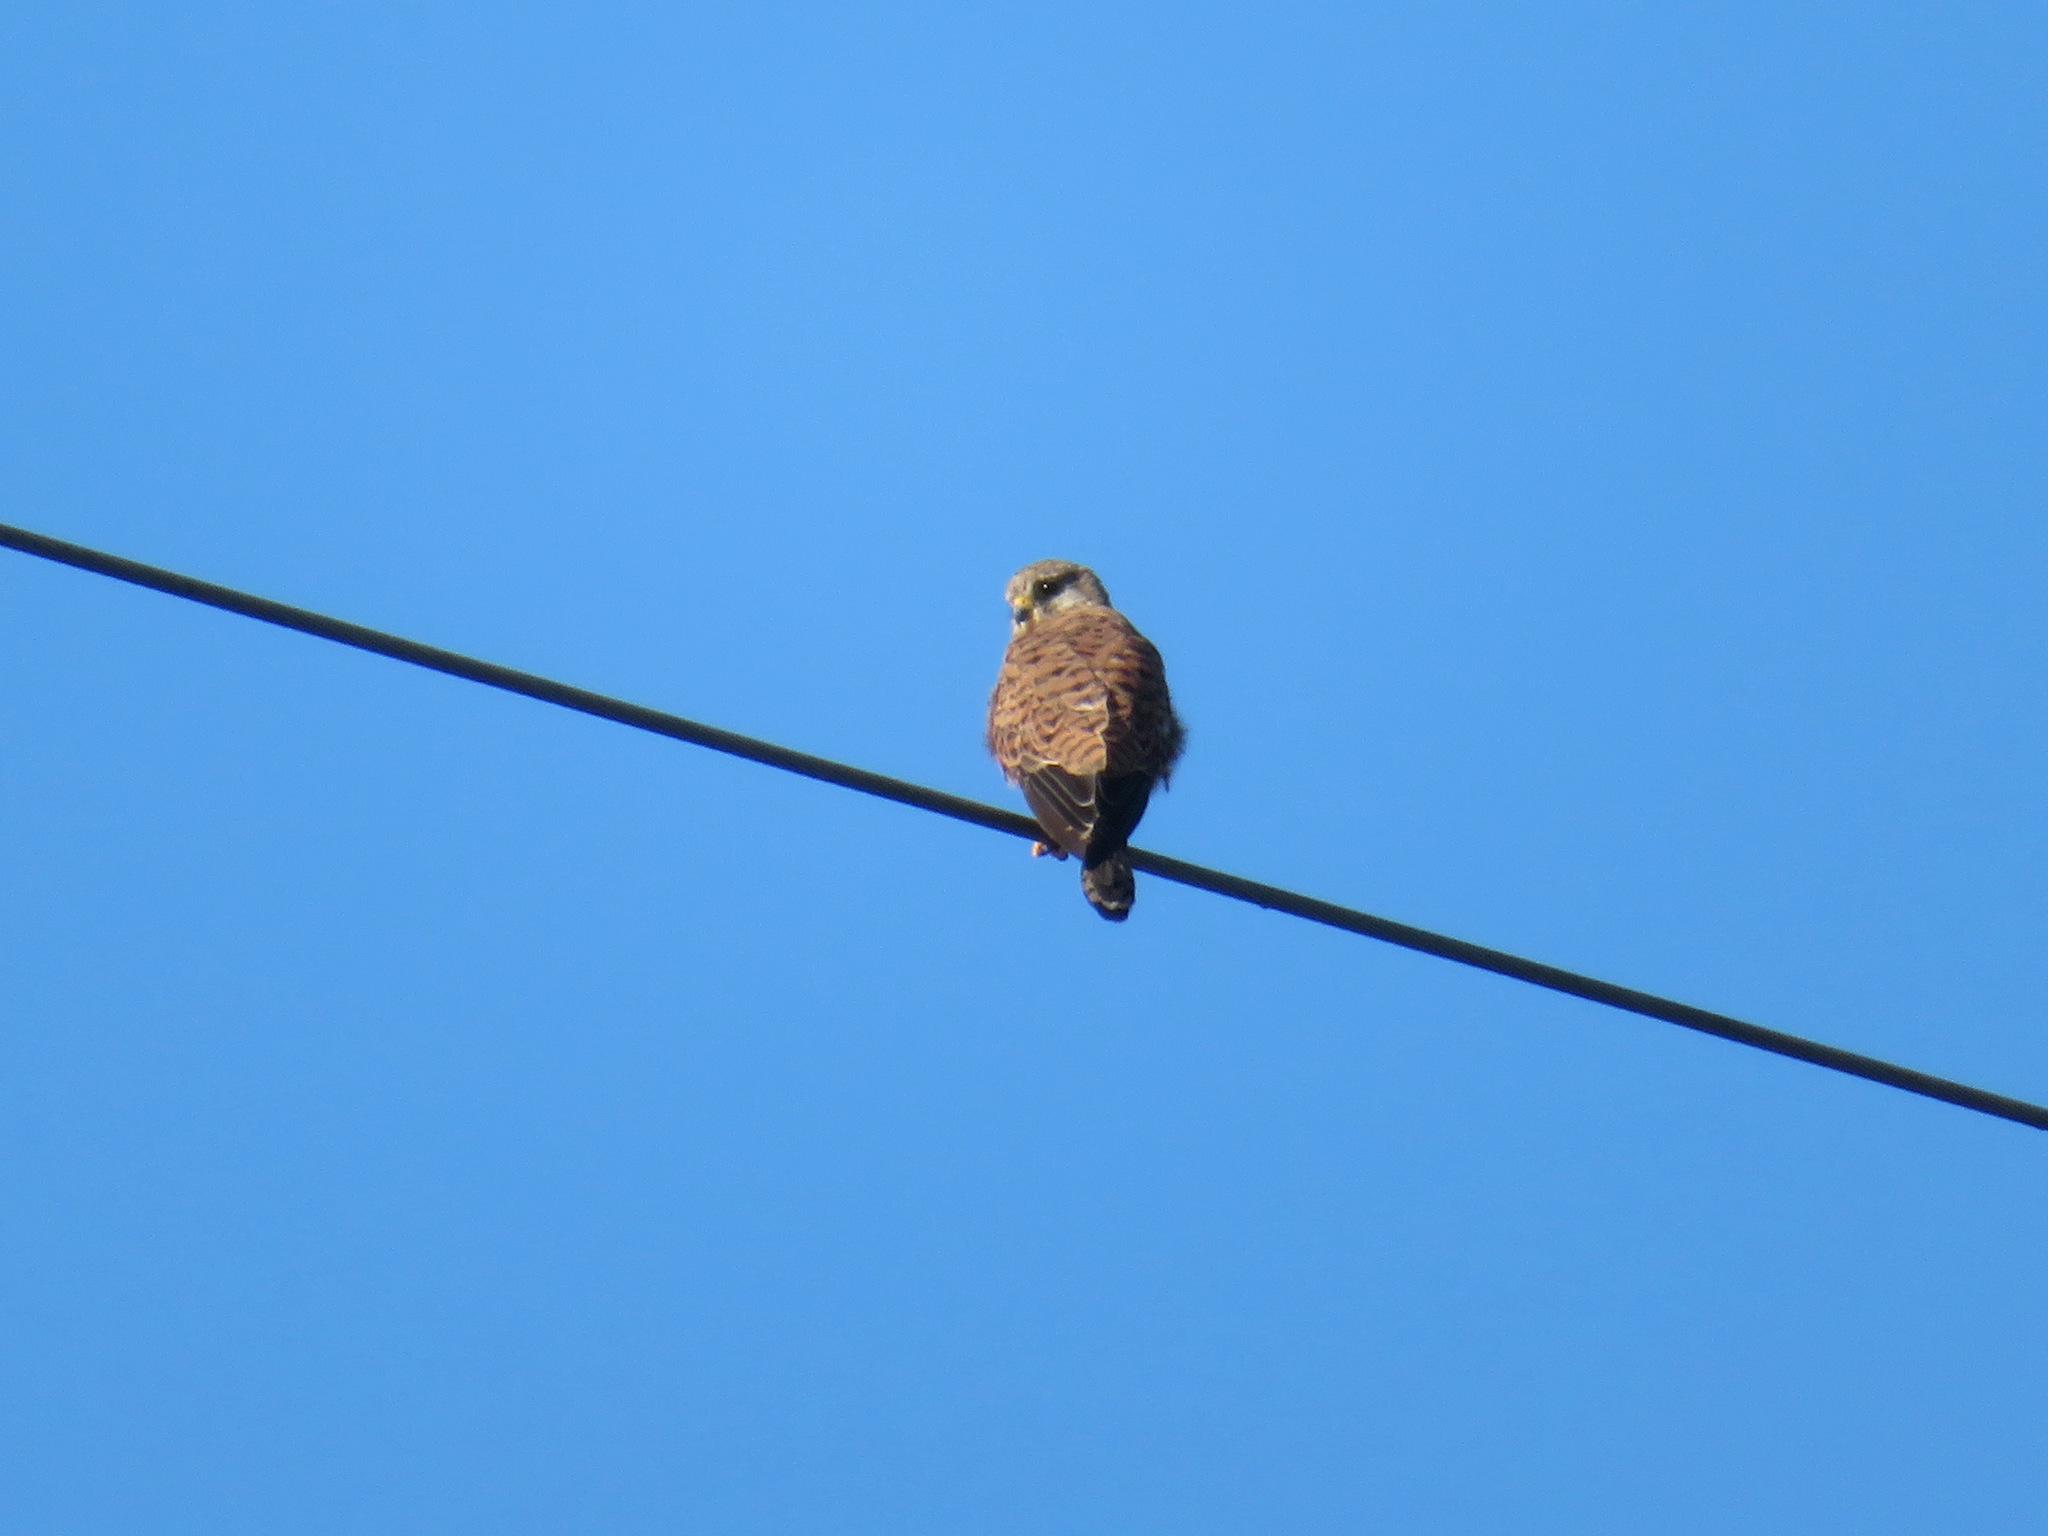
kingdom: Animalia
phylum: Chordata
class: Aves
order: Falconiformes
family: Falconidae
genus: Falco
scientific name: Falco tinnunculus
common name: Common kestrel
